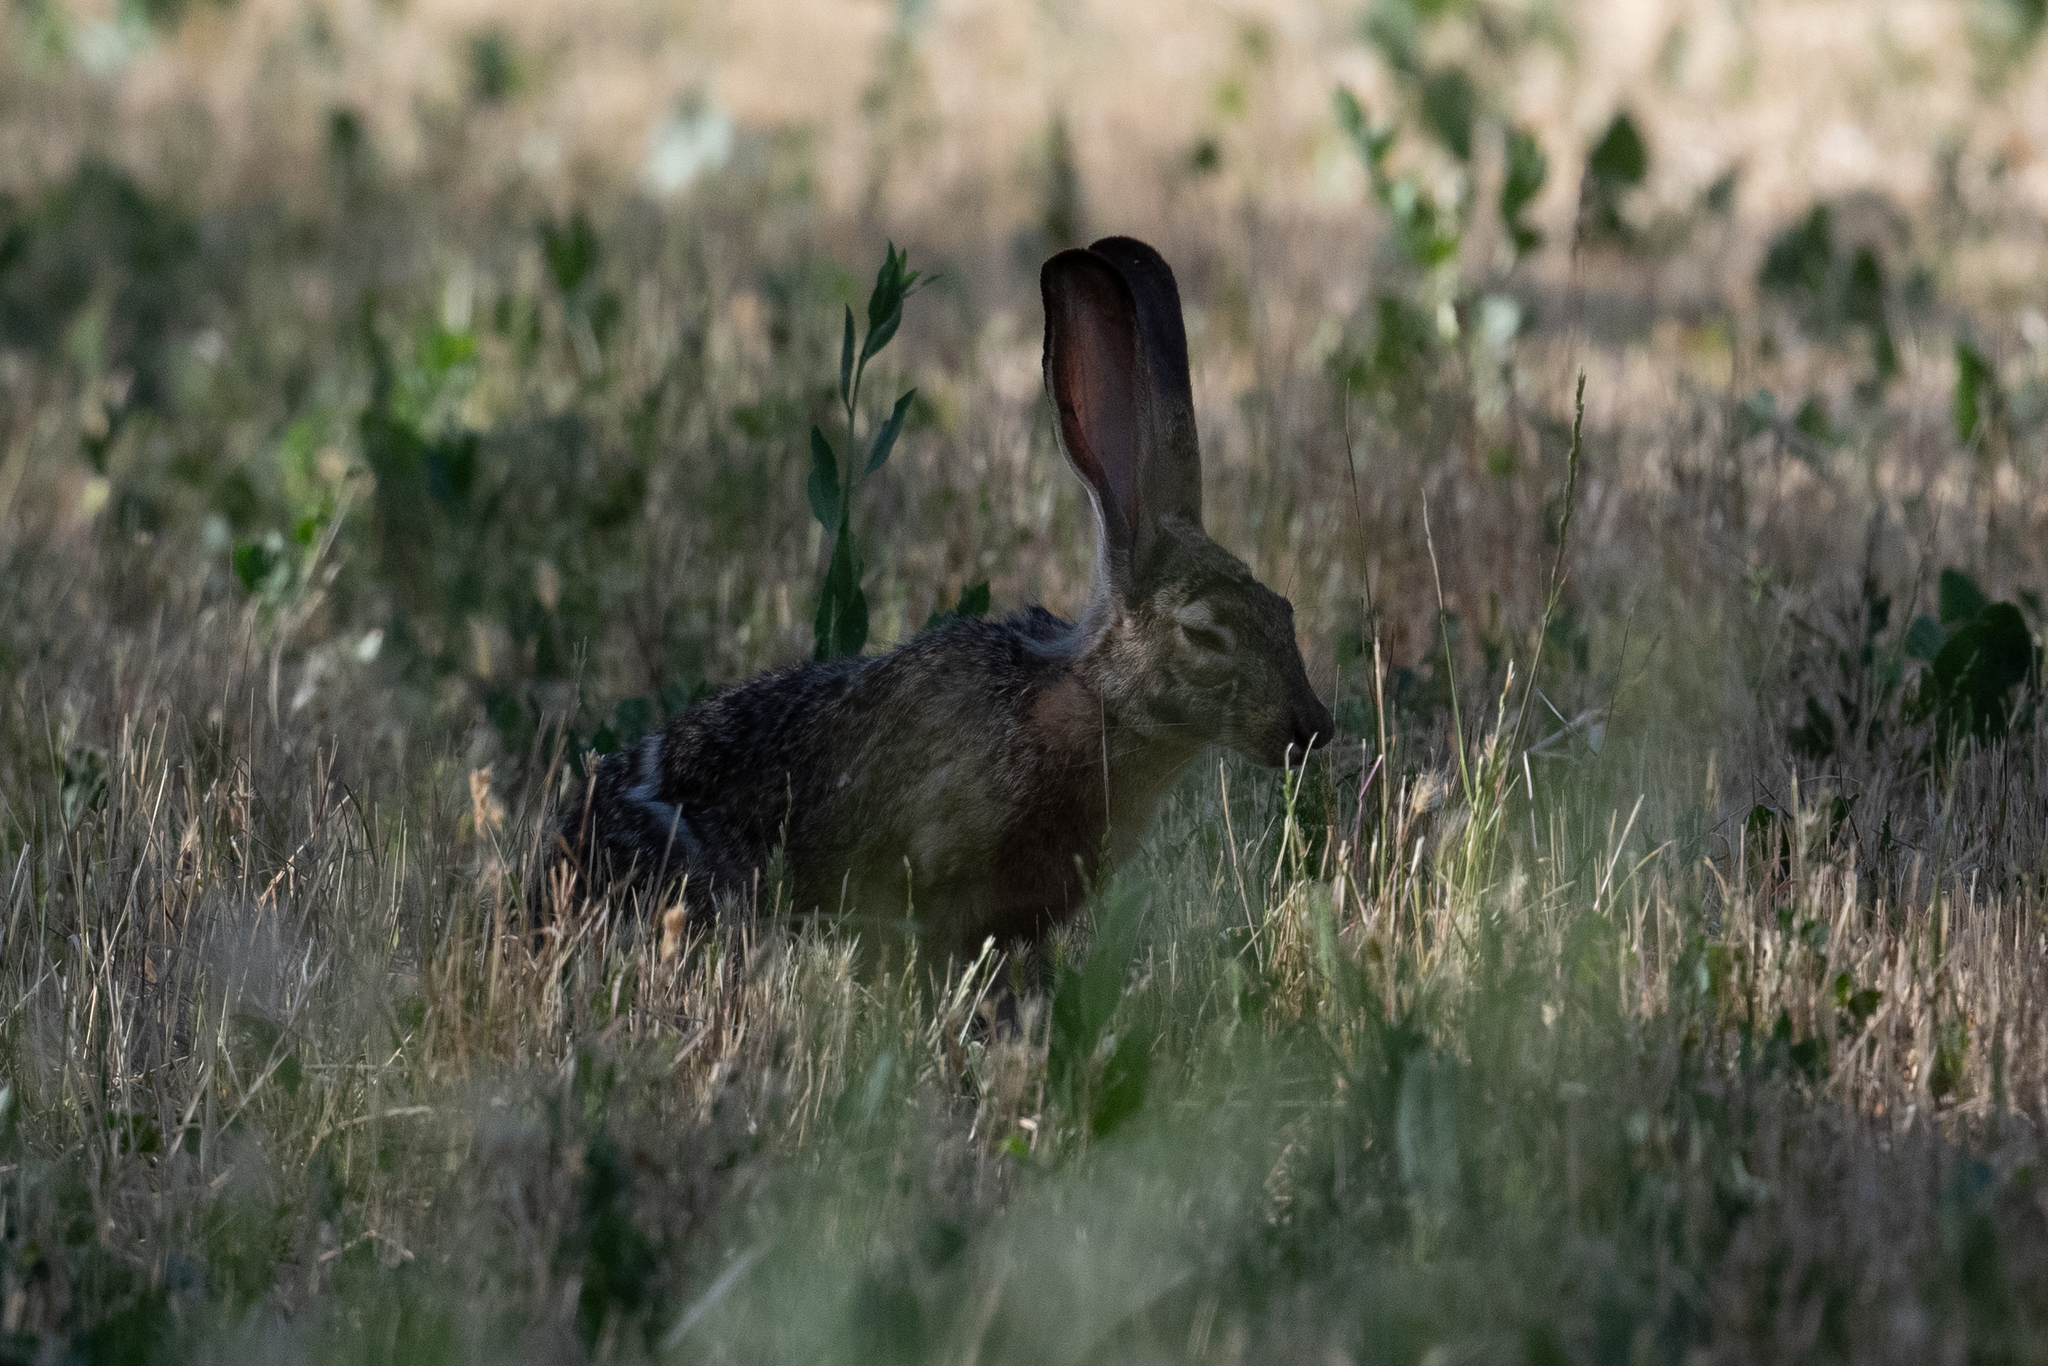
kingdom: Animalia
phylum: Chordata
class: Mammalia
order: Lagomorpha
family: Leporidae
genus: Lepus
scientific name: Lepus californicus
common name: Black-tailed jackrabbit
